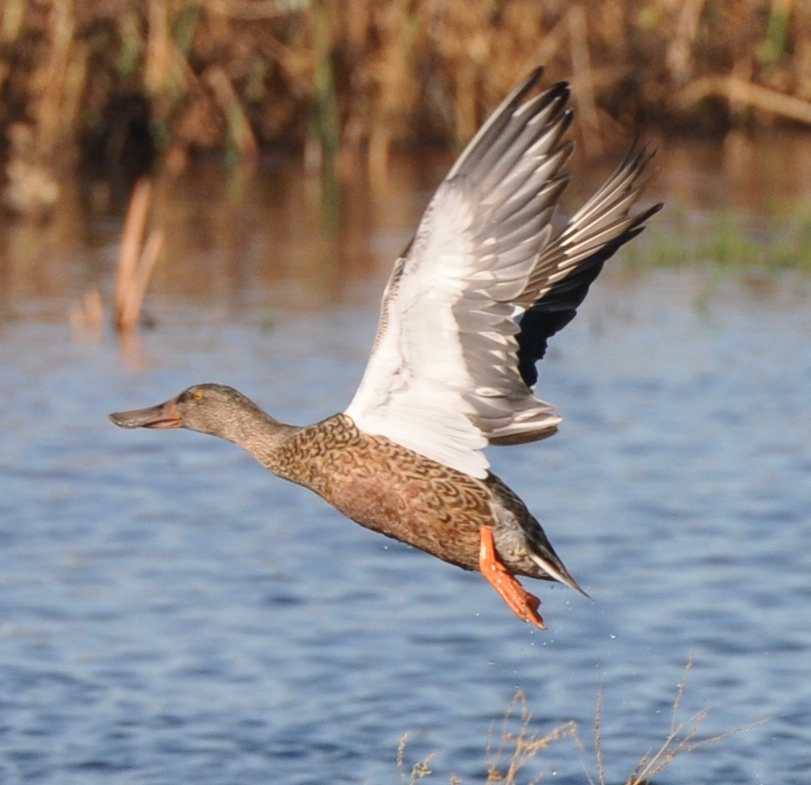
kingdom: Animalia
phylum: Chordata
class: Aves
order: Anseriformes
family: Anatidae
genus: Spatula
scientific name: Spatula clypeata
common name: Northern shoveler
